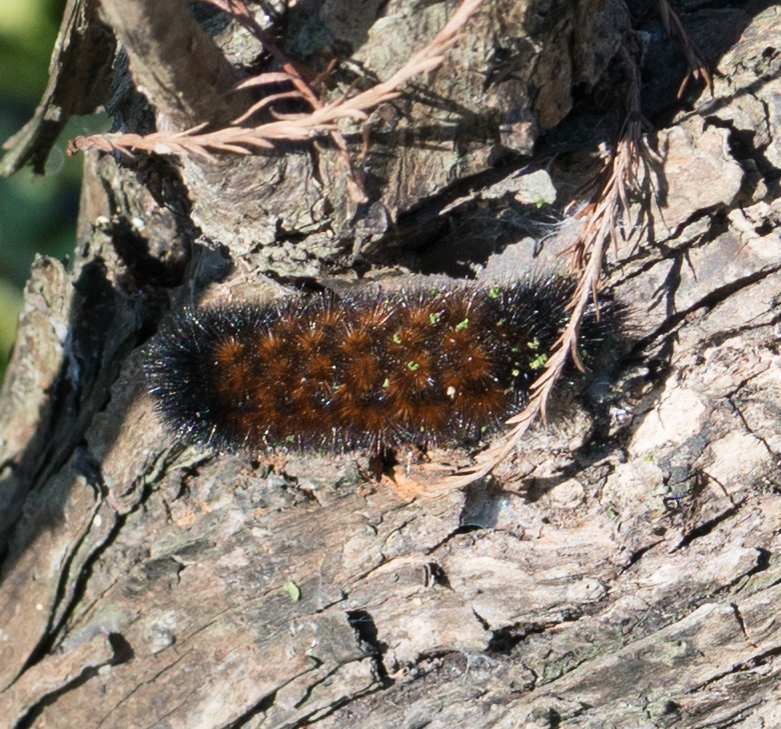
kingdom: Animalia
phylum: Arthropoda
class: Insecta
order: Lepidoptera
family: Erebidae
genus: Pyrrharctia
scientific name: Pyrrharctia isabella
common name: Isabella tiger moth
